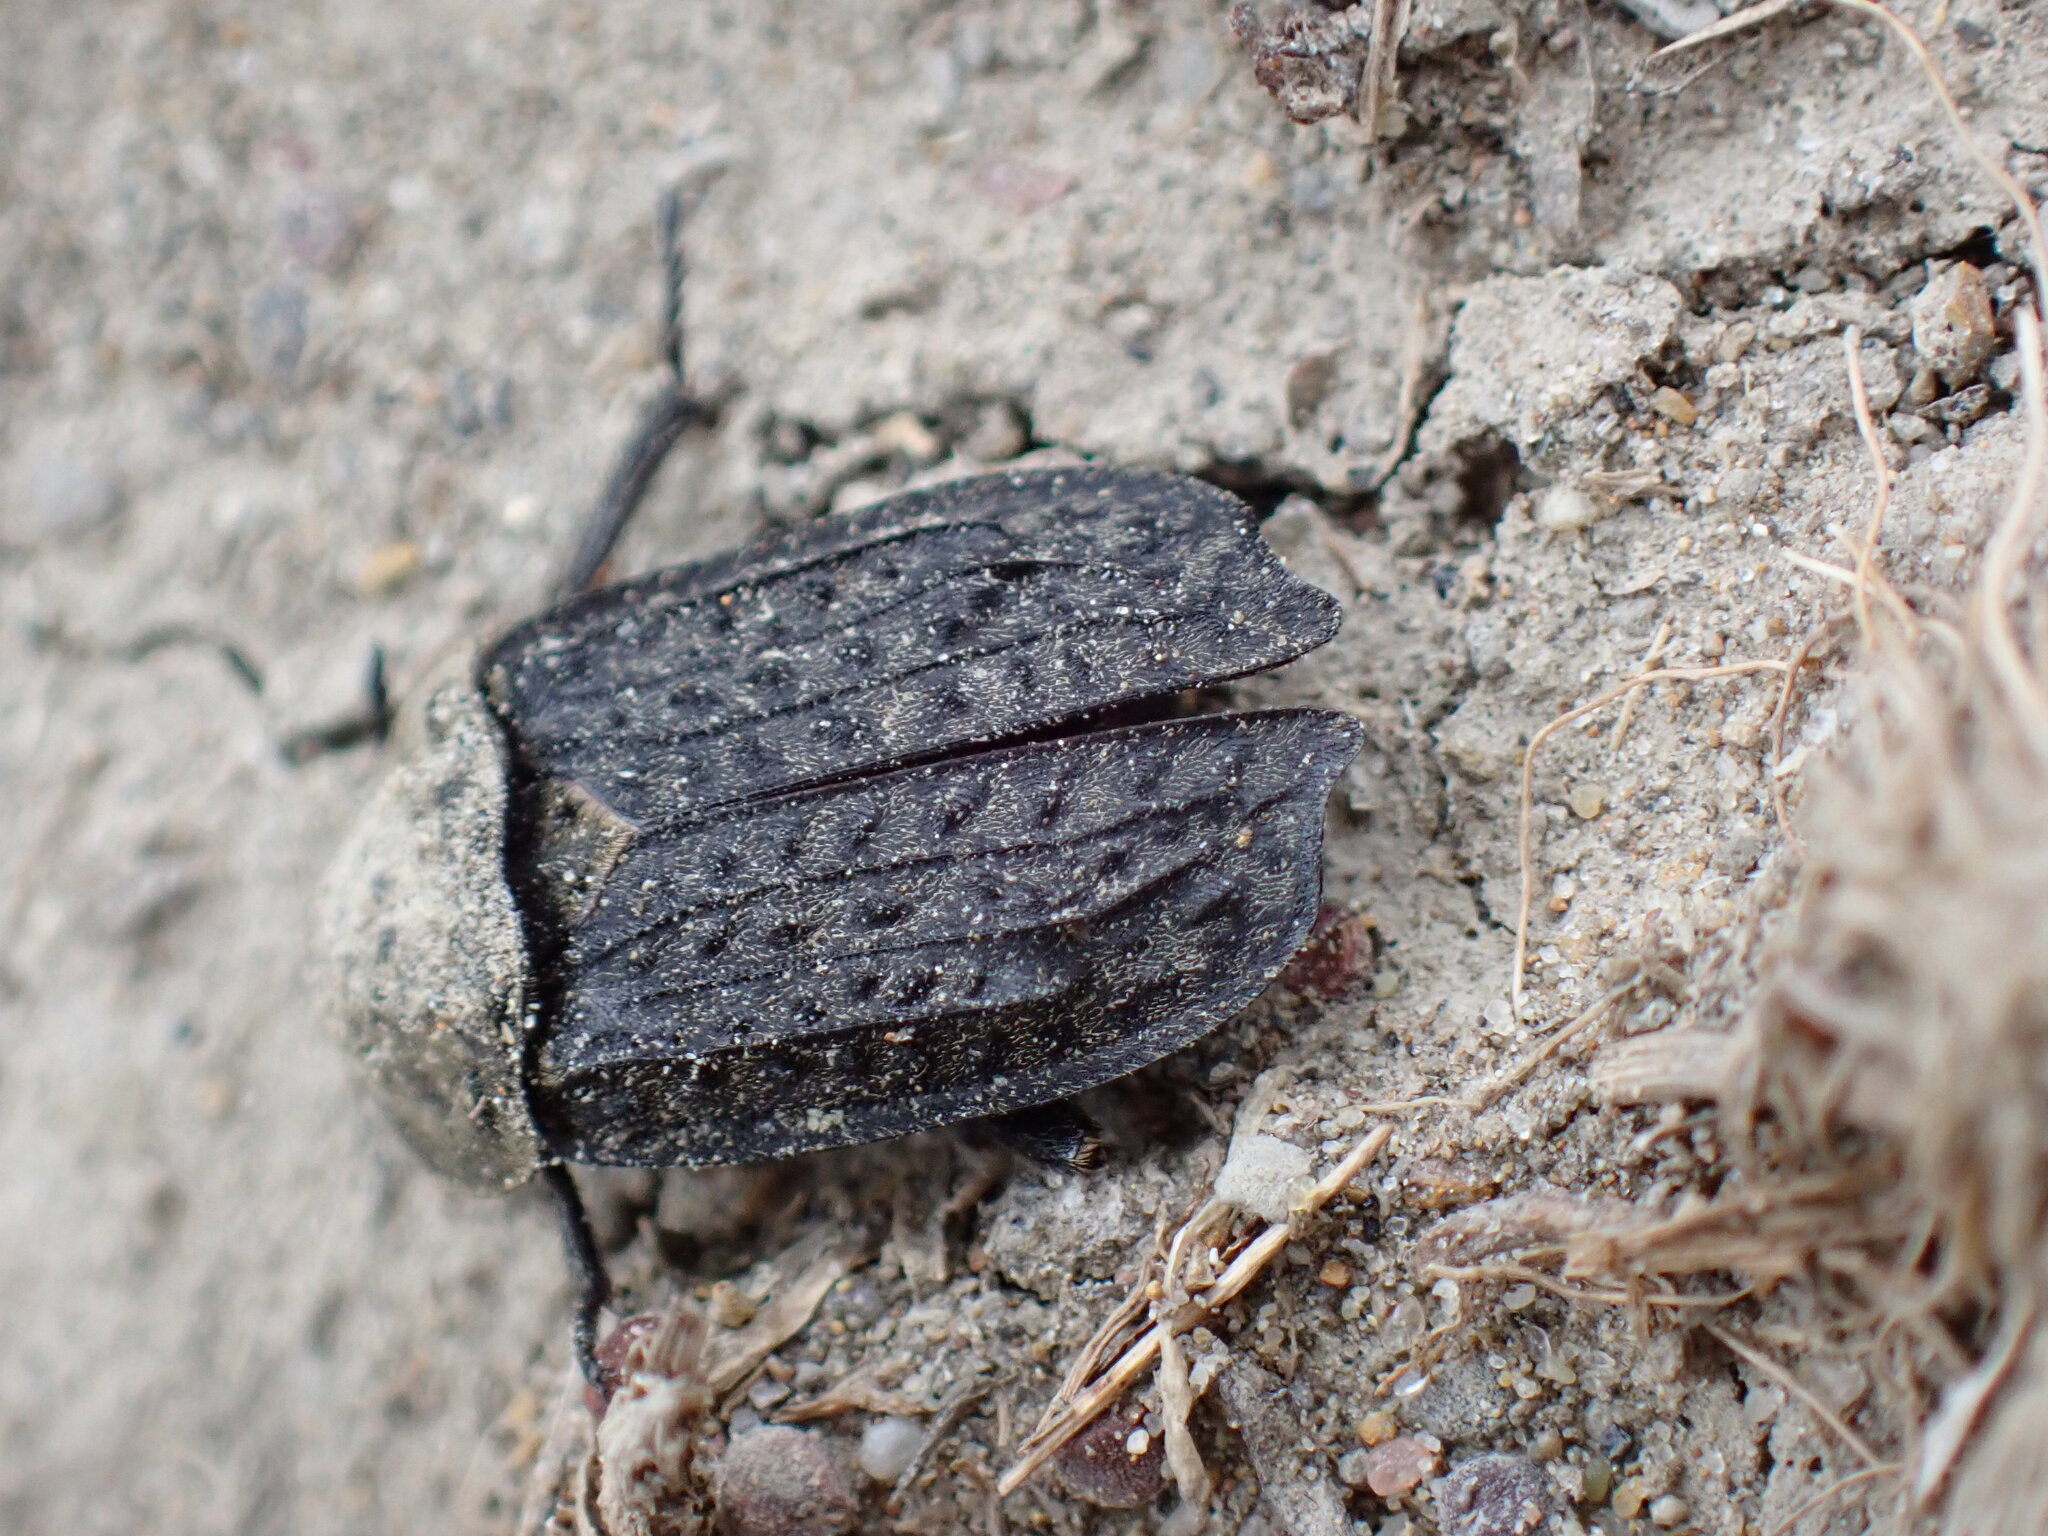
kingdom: Animalia
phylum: Arthropoda
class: Insecta
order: Coleoptera
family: Staphylinidae
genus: Thanatophilus
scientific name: Thanatophilus lapponicus
